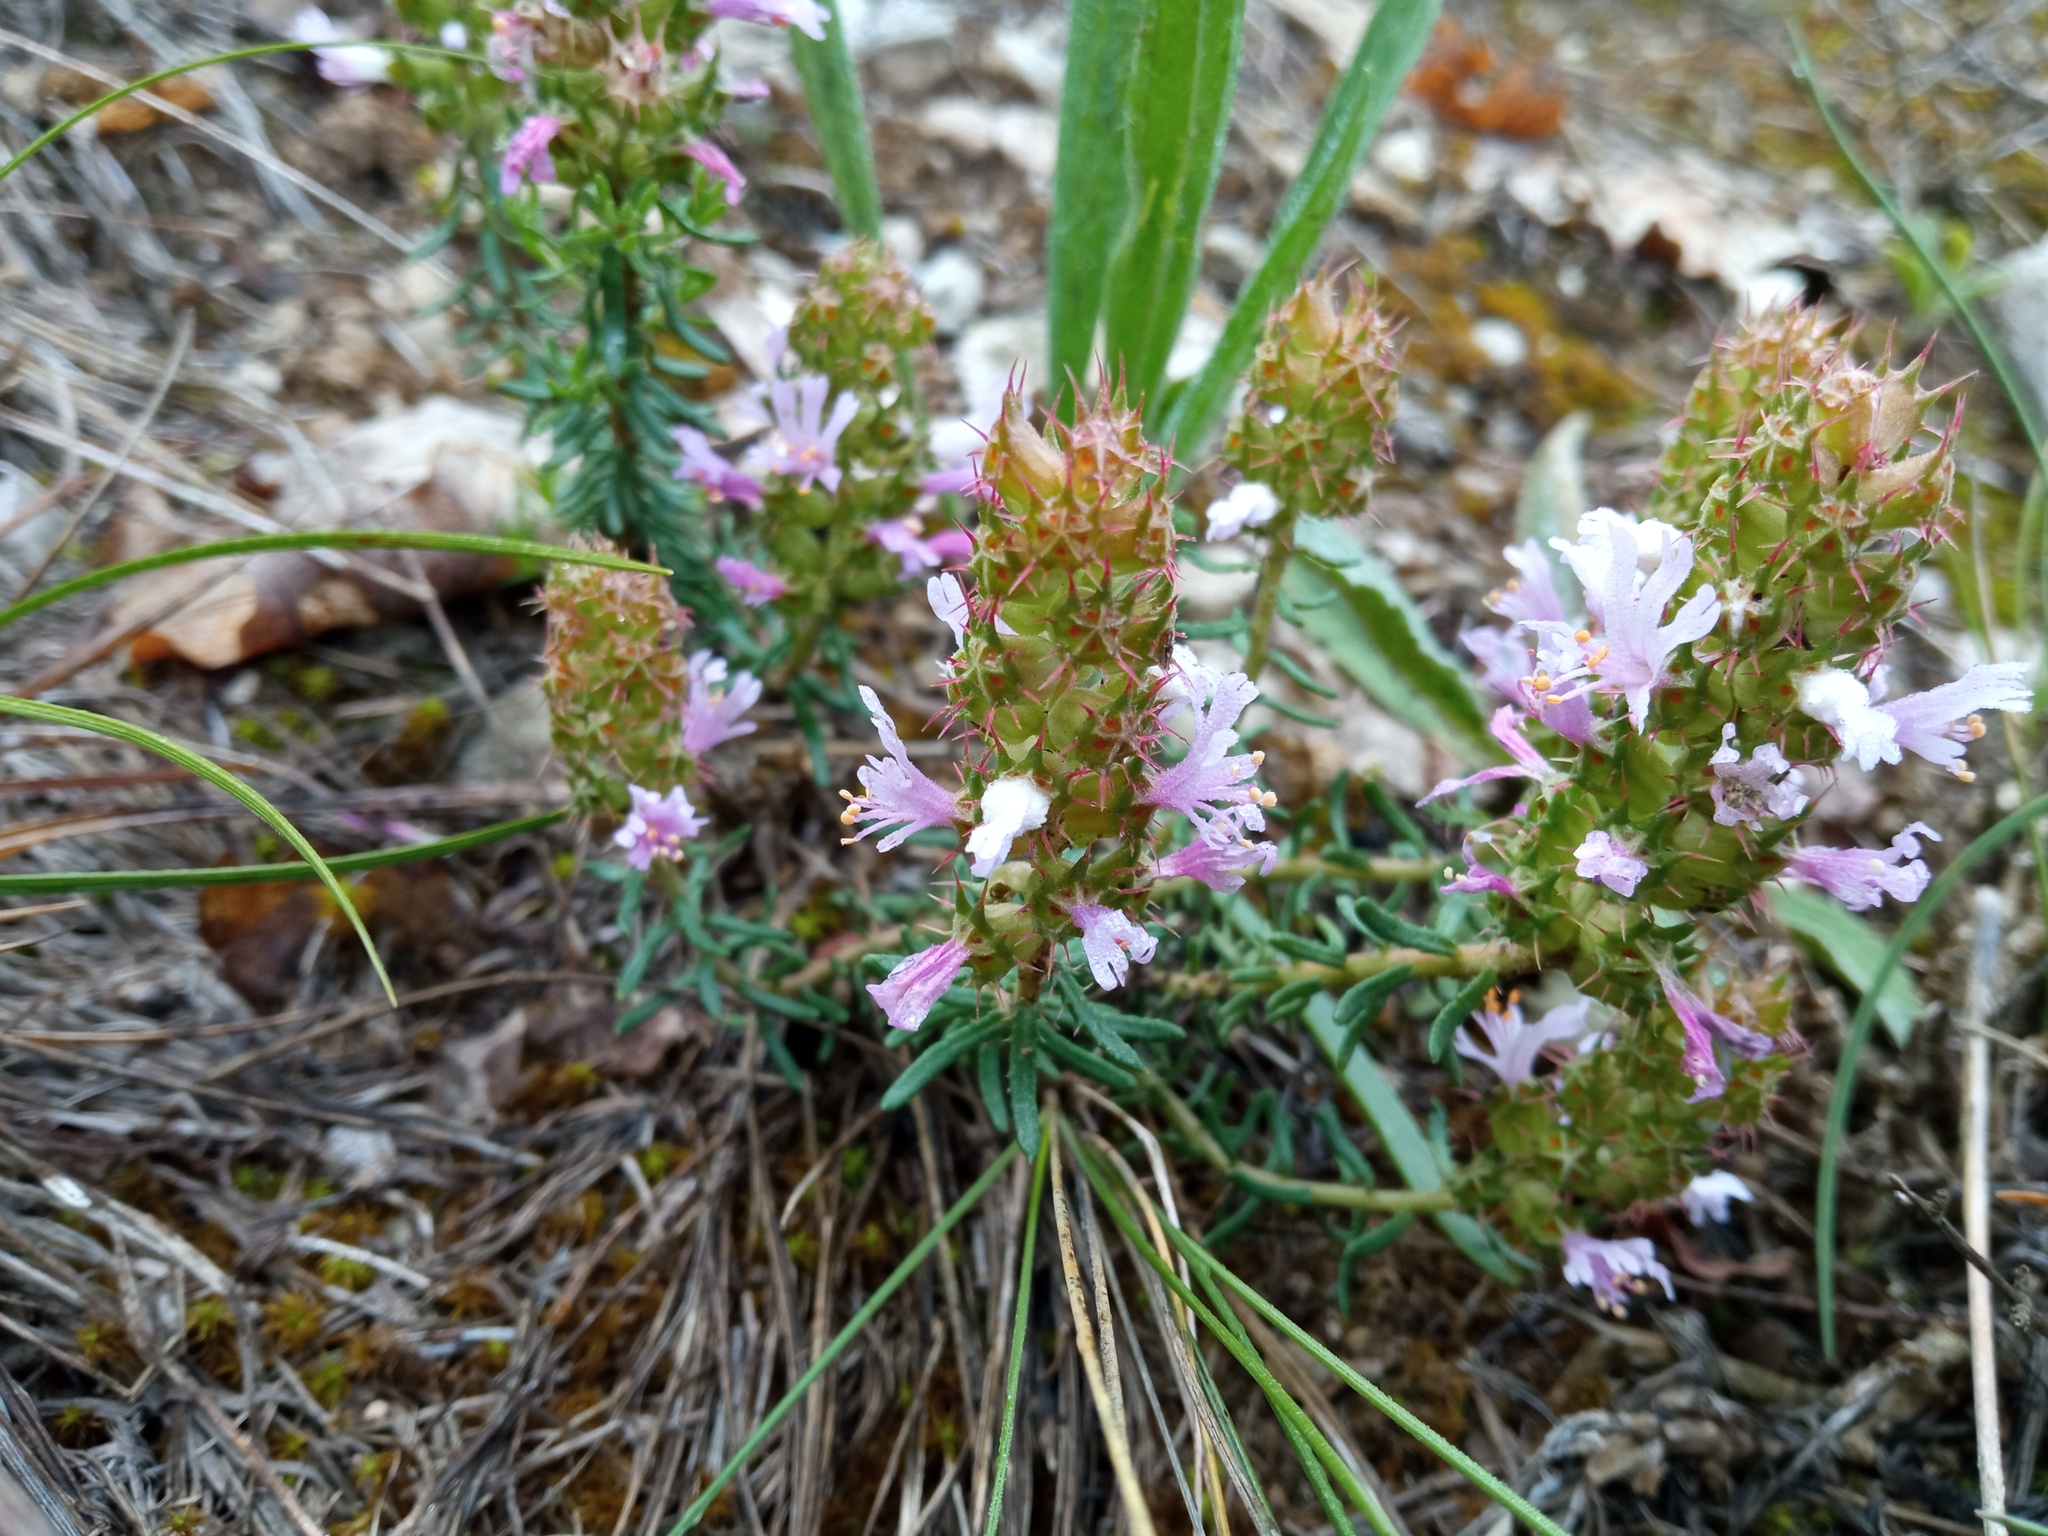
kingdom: Plantae
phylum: Tracheophyta
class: Magnoliopsida
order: Ericales
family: Primulaceae
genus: Coris
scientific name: Coris monspeliensis
